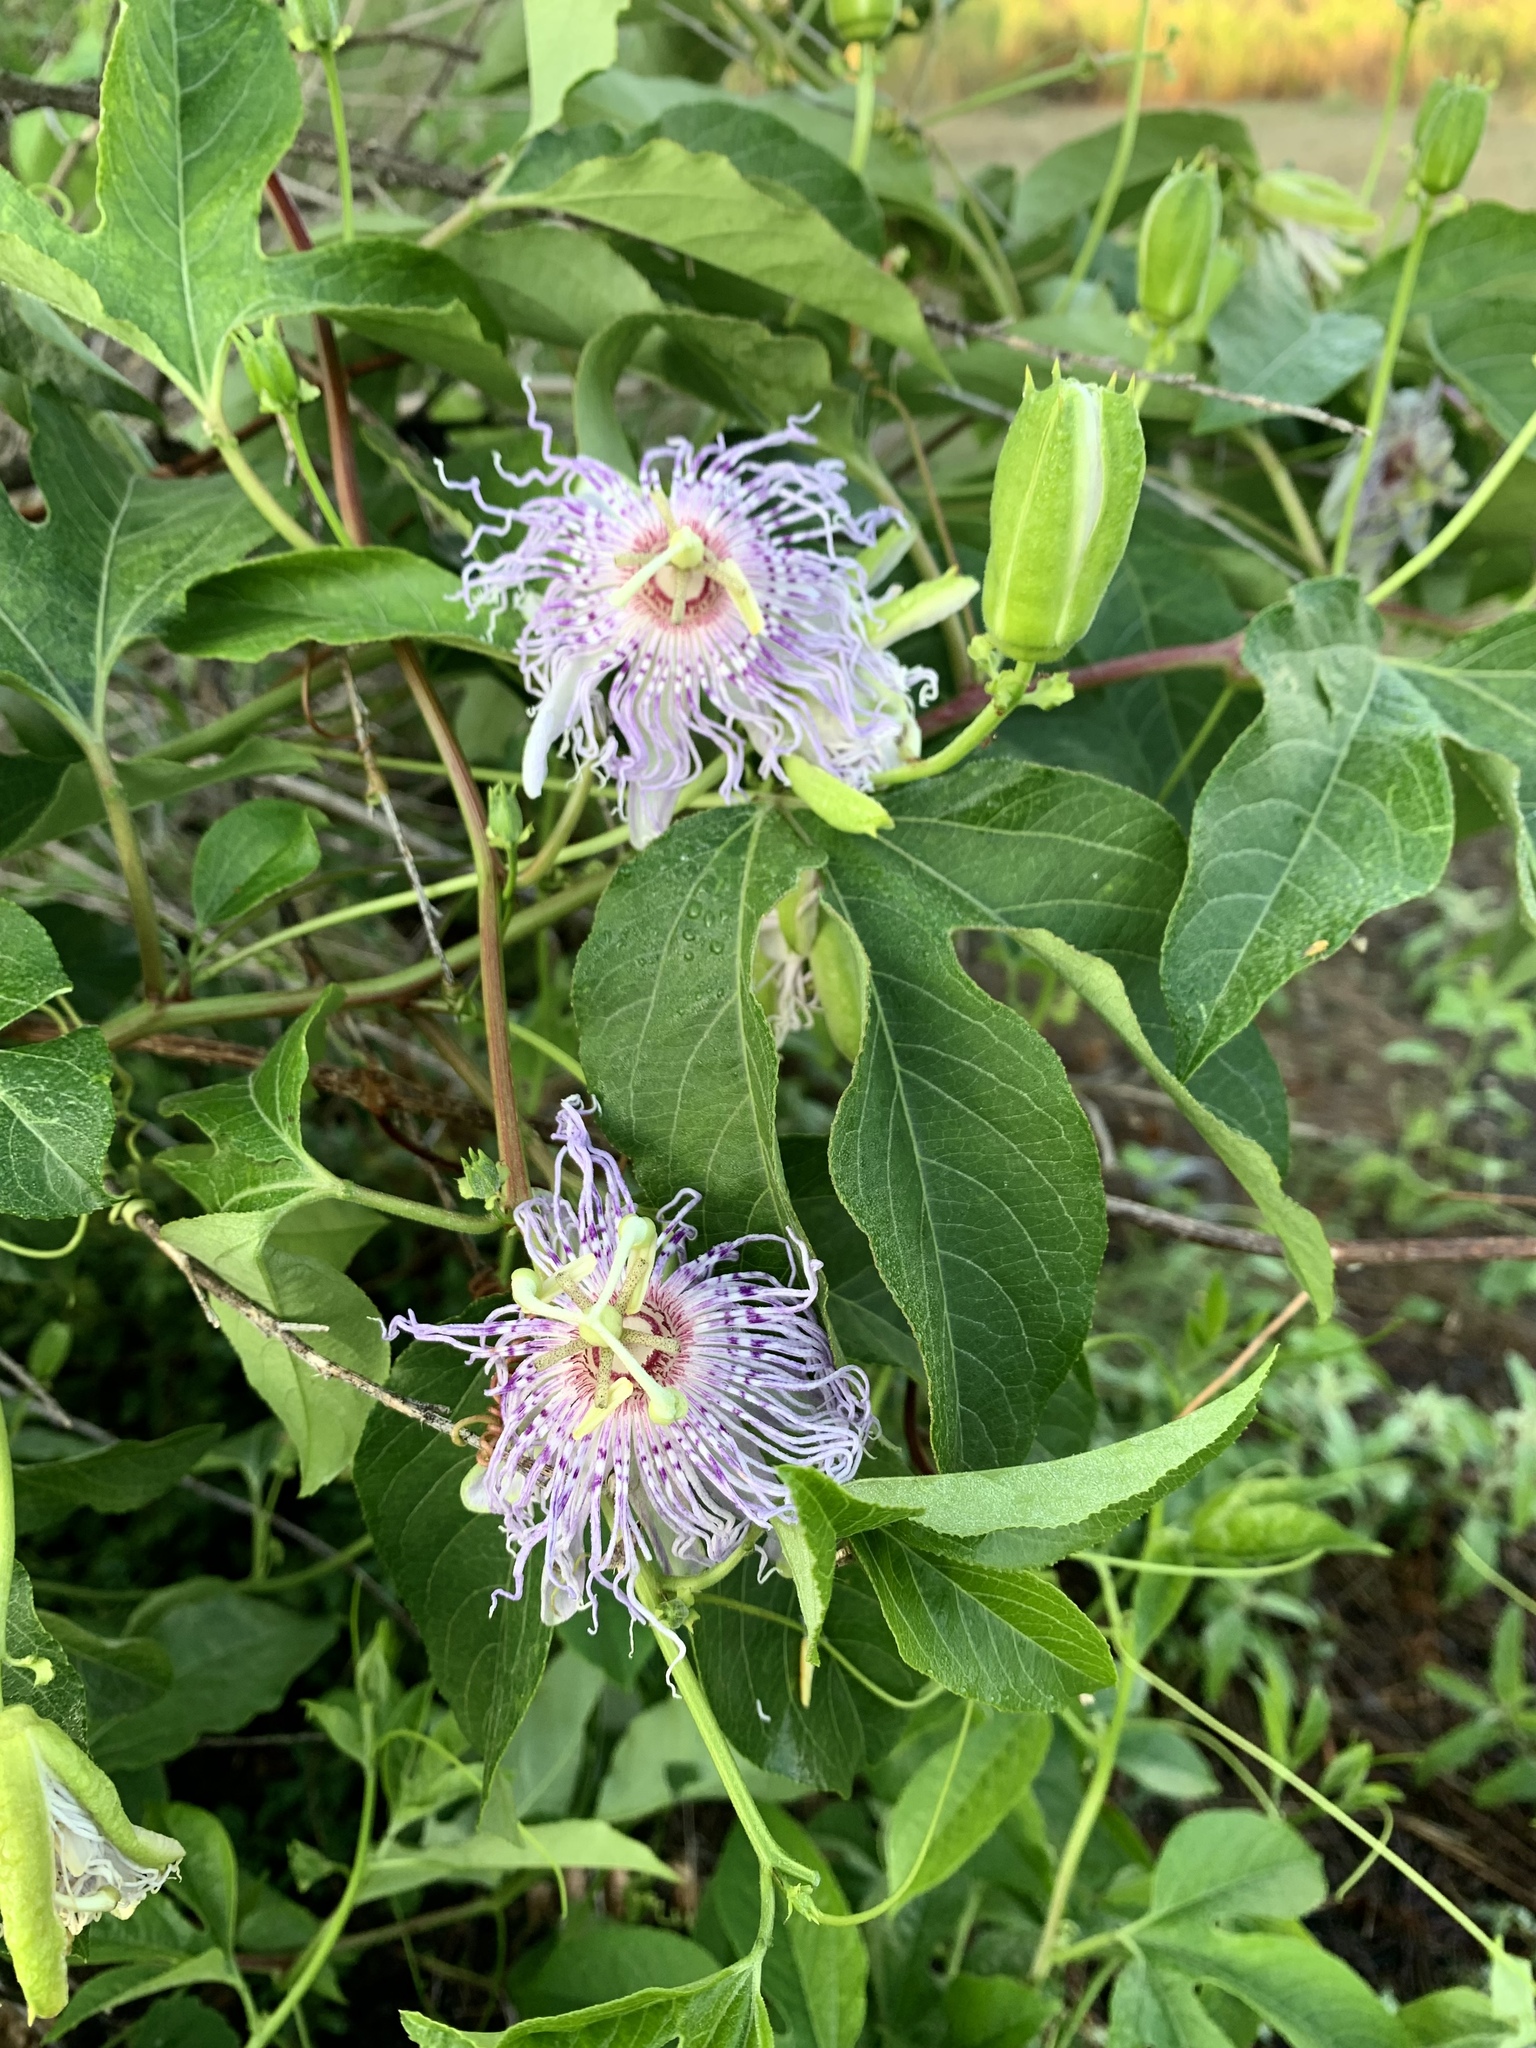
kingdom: Plantae
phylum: Tracheophyta
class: Magnoliopsida
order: Malpighiales
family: Passifloraceae
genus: Passiflora
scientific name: Passiflora incarnata
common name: Apricot-vine
